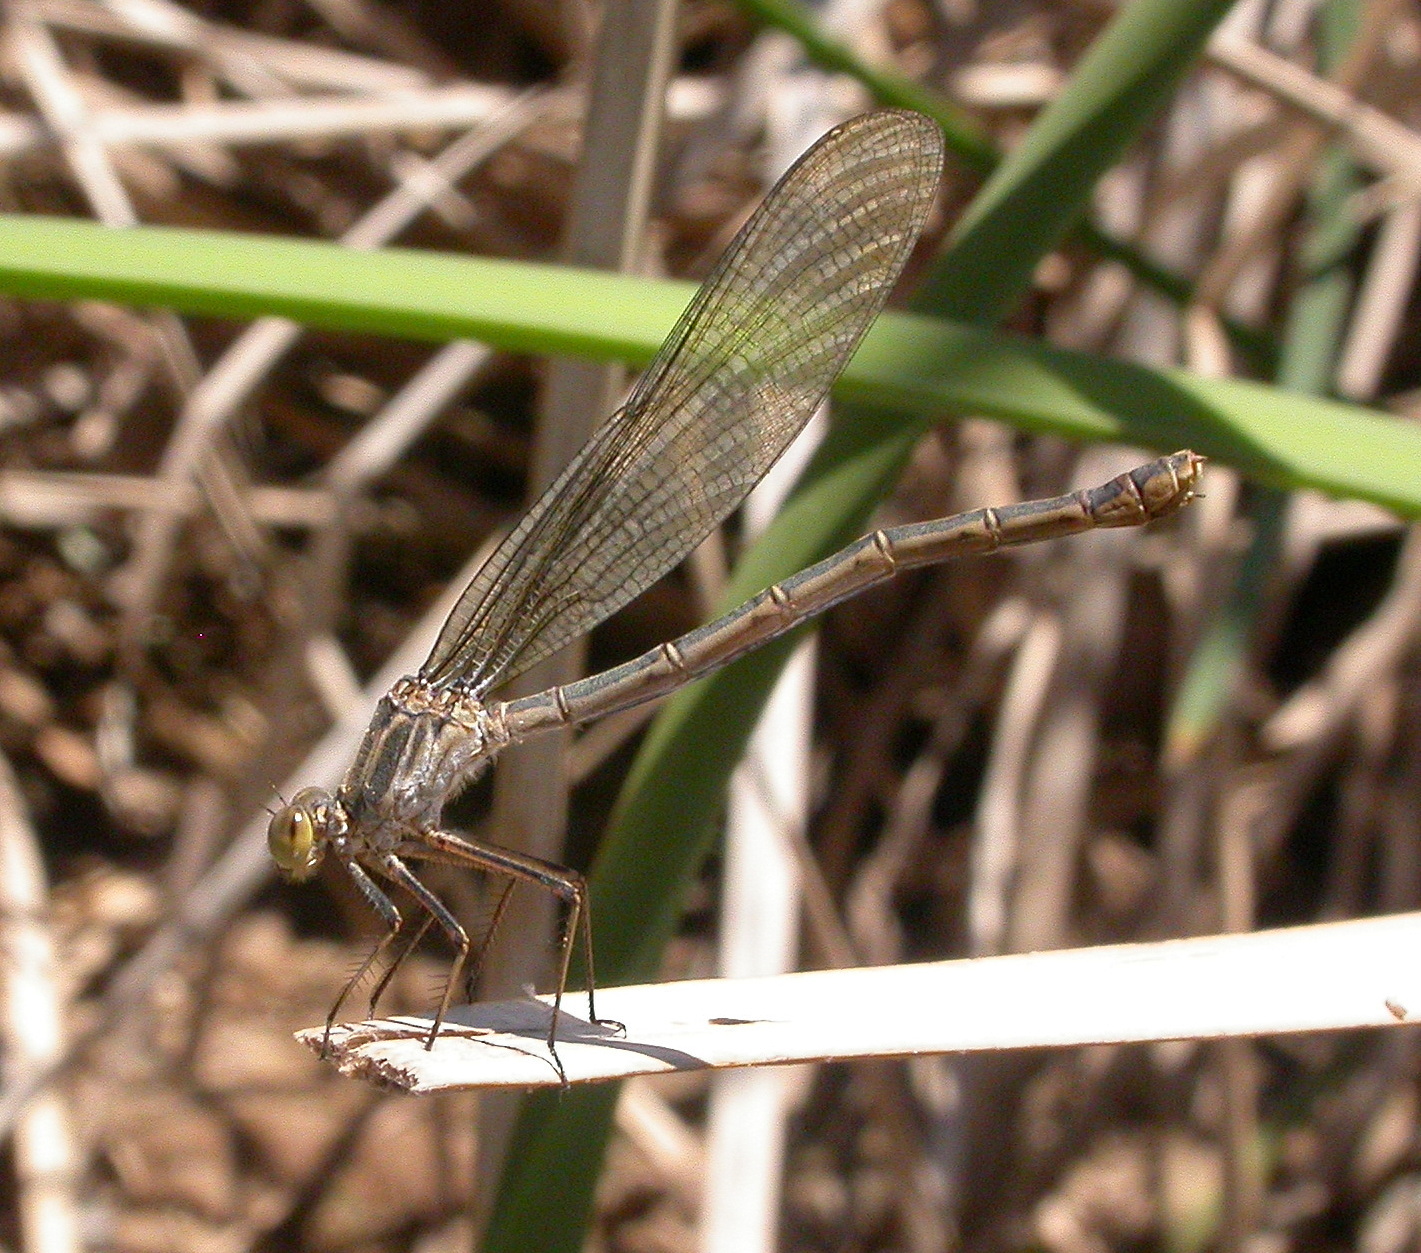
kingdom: Animalia
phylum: Arthropoda
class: Insecta
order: Odonata
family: Calopterygidae
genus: Hetaerina
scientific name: Hetaerina americana
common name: American rubyspot
